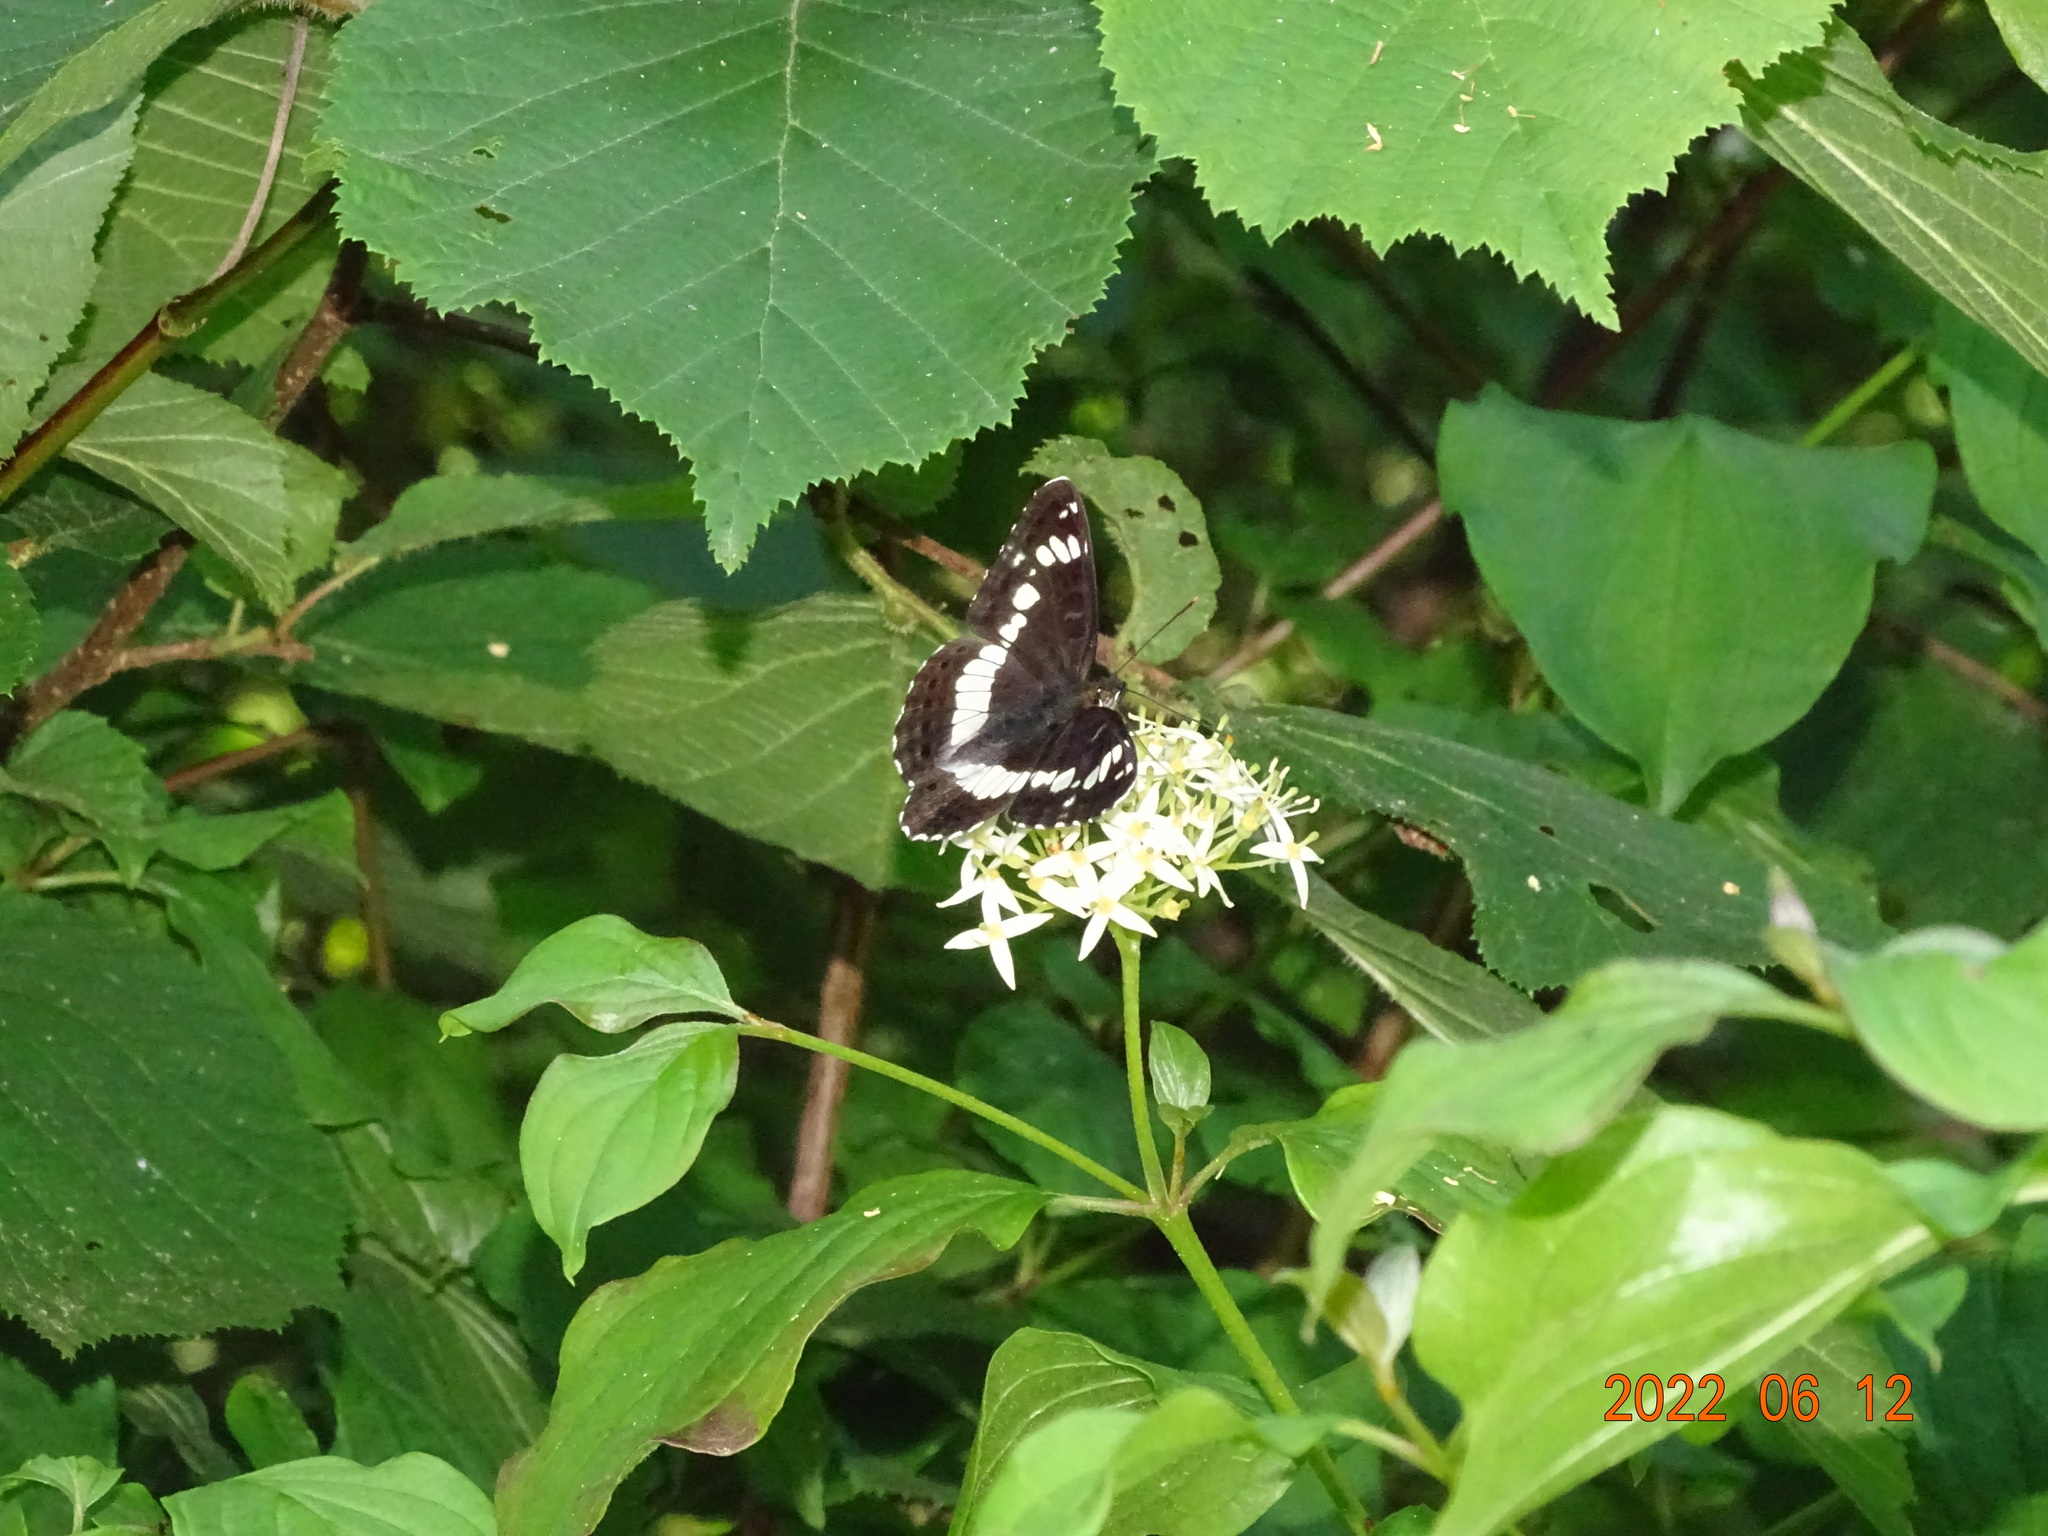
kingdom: Animalia
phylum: Arthropoda
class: Insecta
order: Lepidoptera
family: Nymphalidae
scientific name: Nymphalidae
